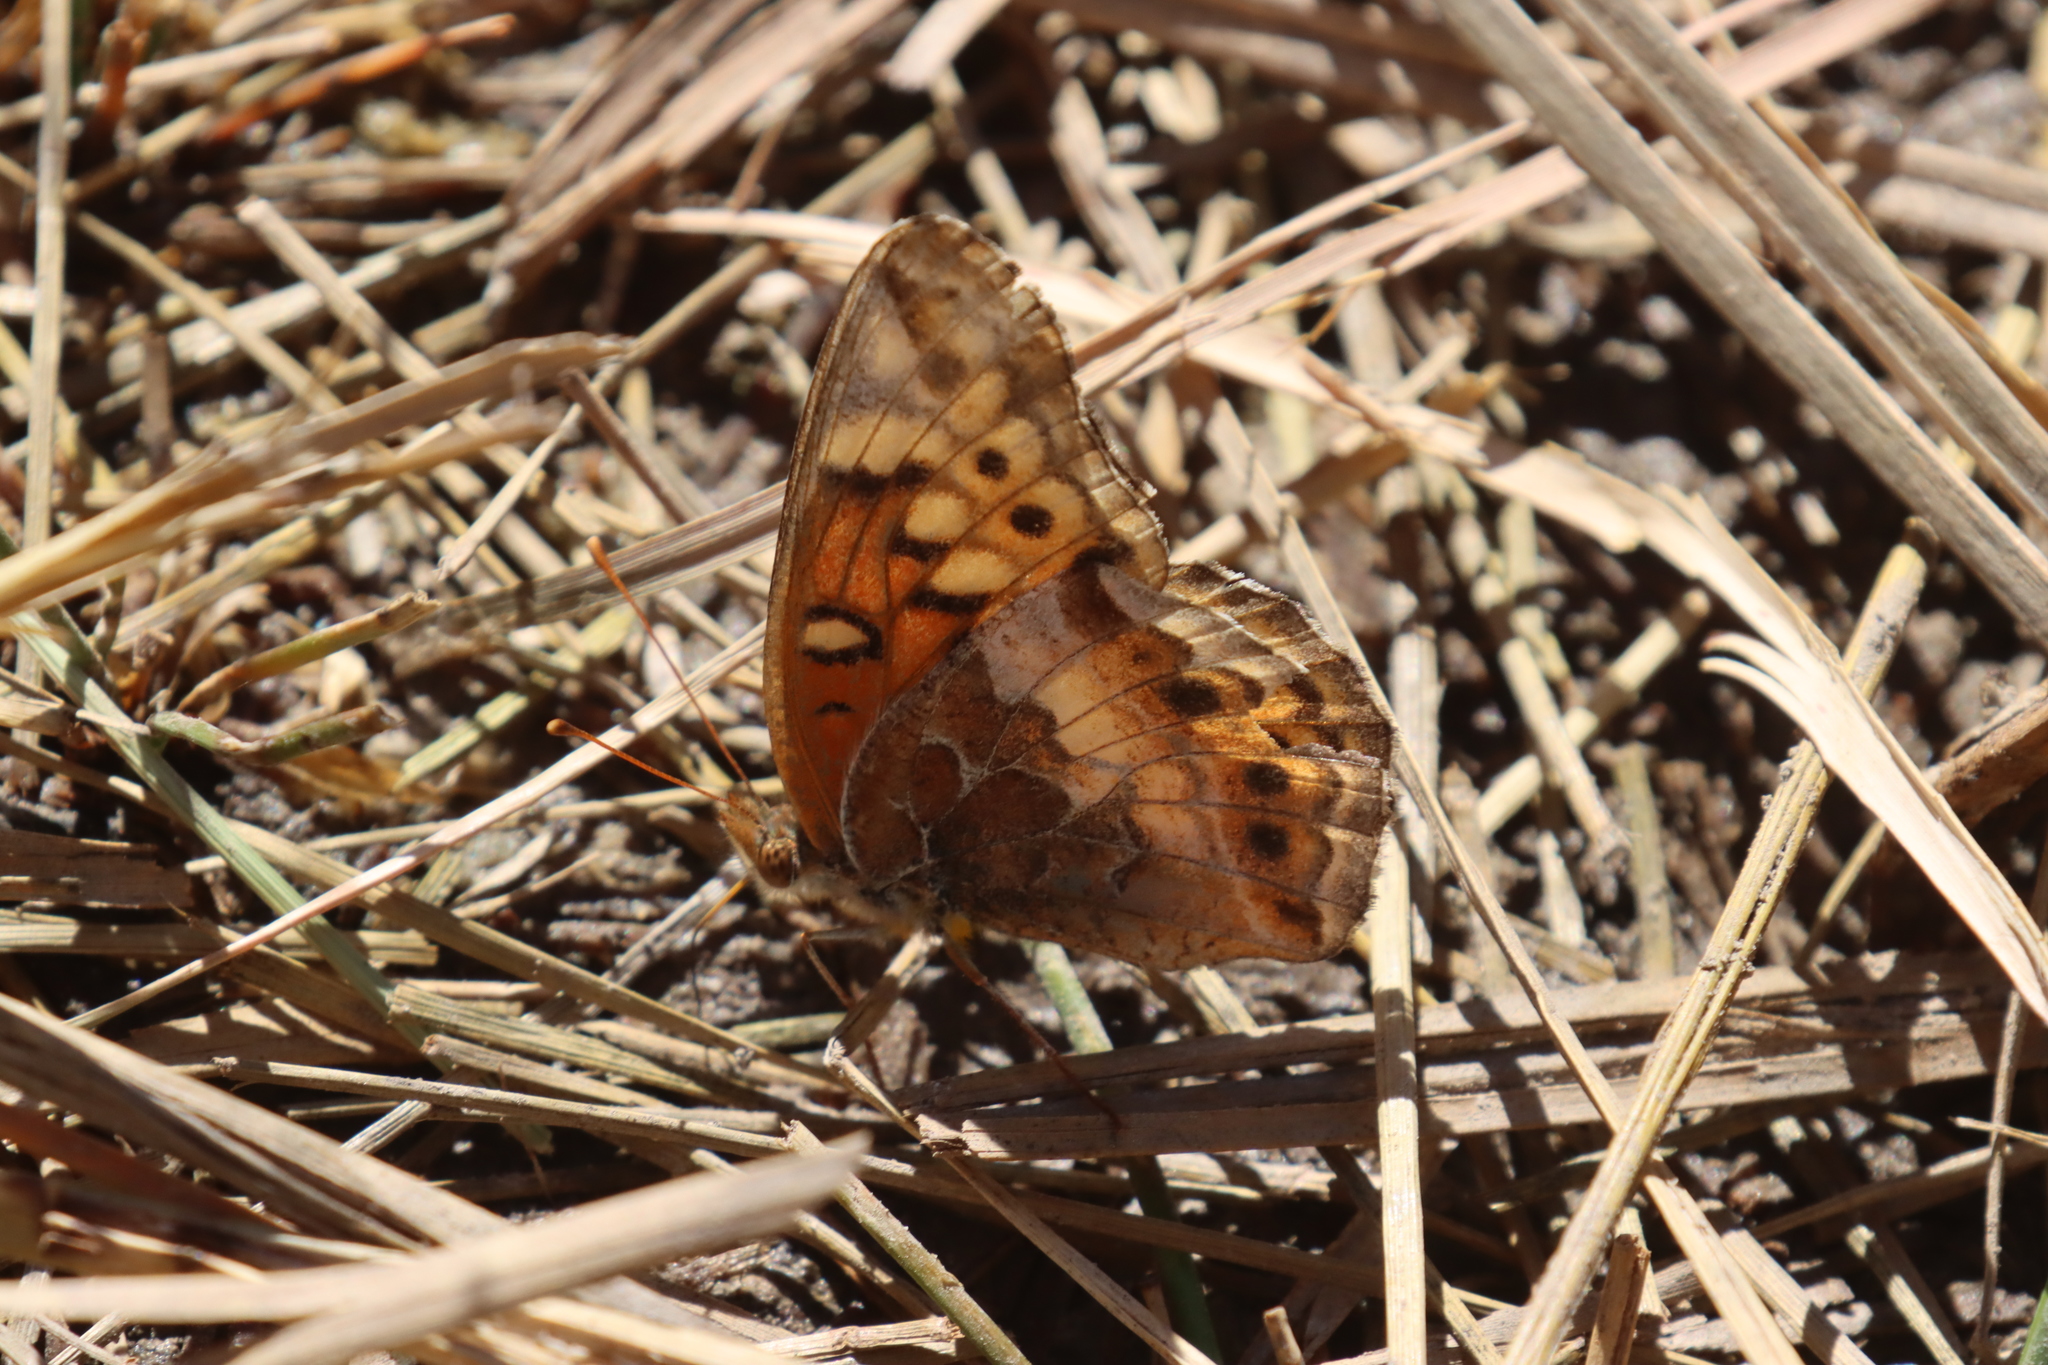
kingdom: Animalia
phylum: Arthropoda
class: Insecta
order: Lepidoptera
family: Nymphalidae
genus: Euptoieta
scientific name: Euptoieta claudia
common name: Variegated fritillary
